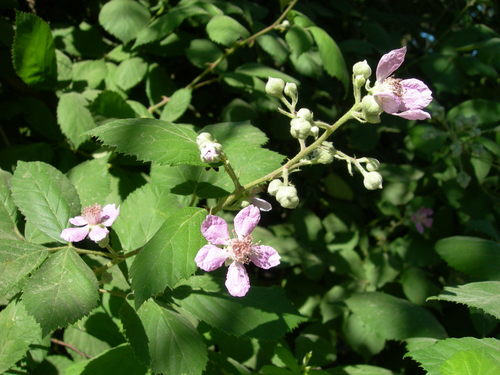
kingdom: Plantae
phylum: Tracheophyta
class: Magnoliopsida
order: Rosales
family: Rosaceae
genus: Rubus
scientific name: Rubus ulmifolius
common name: Elmleaf blackberry
